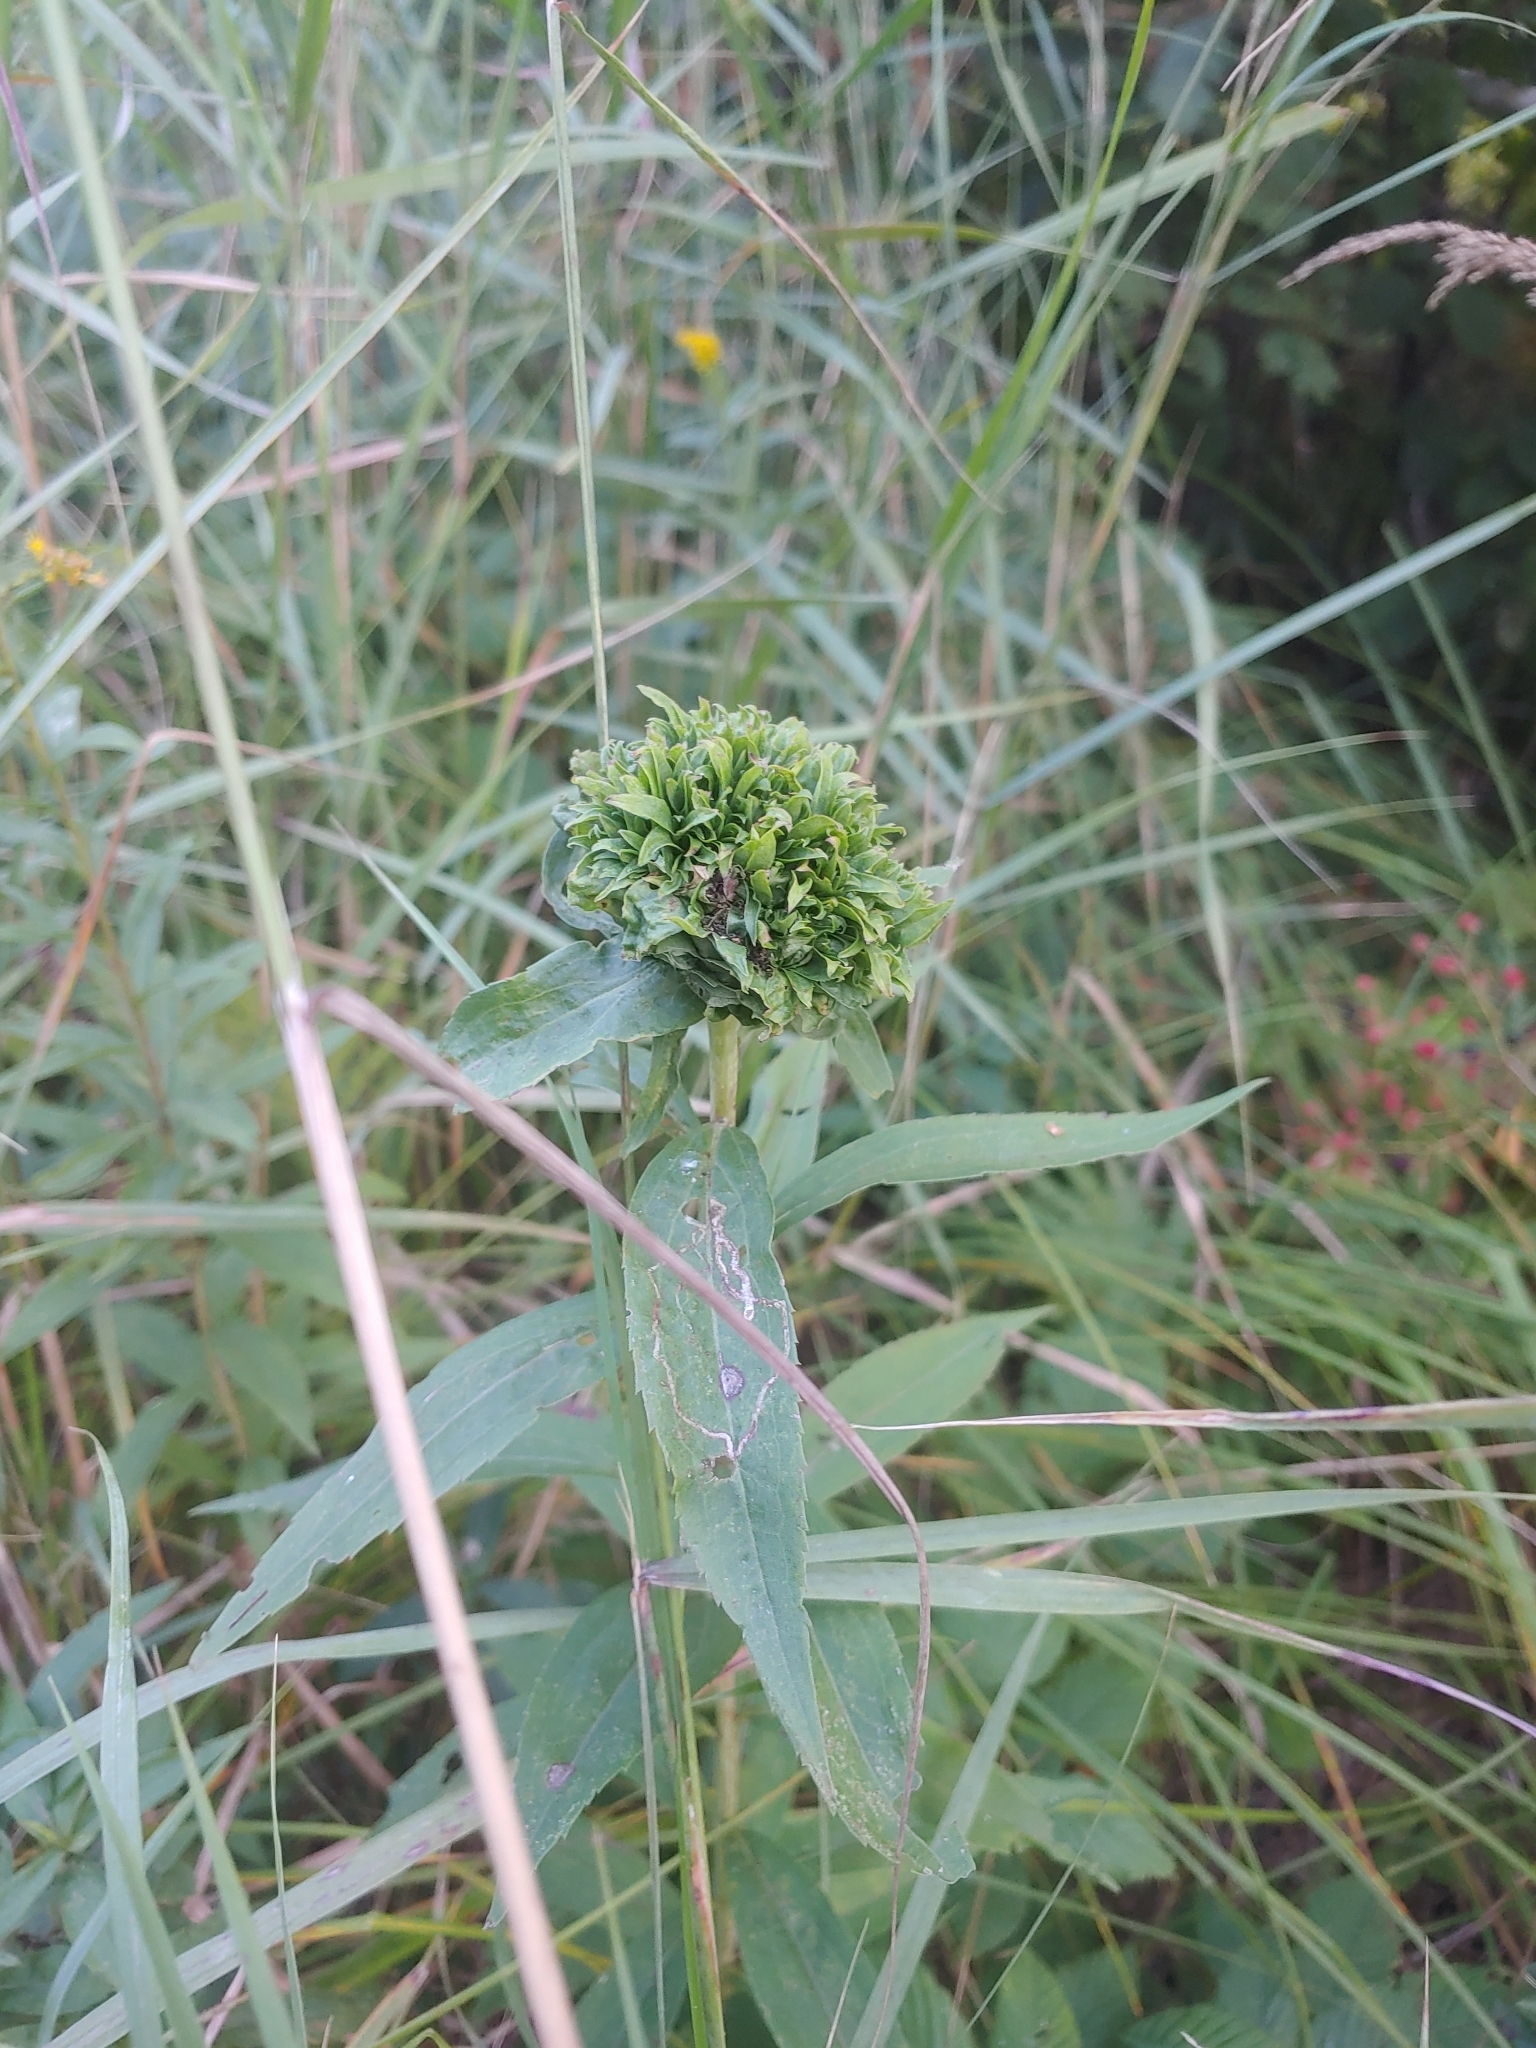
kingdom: Animalia
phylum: Arthropoda
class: Insecta
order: Diptera
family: Cecidomyiidae
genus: Rhopalomyia
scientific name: Rhopalomyia capitata
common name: Giant goldenrod bunch gall midge
